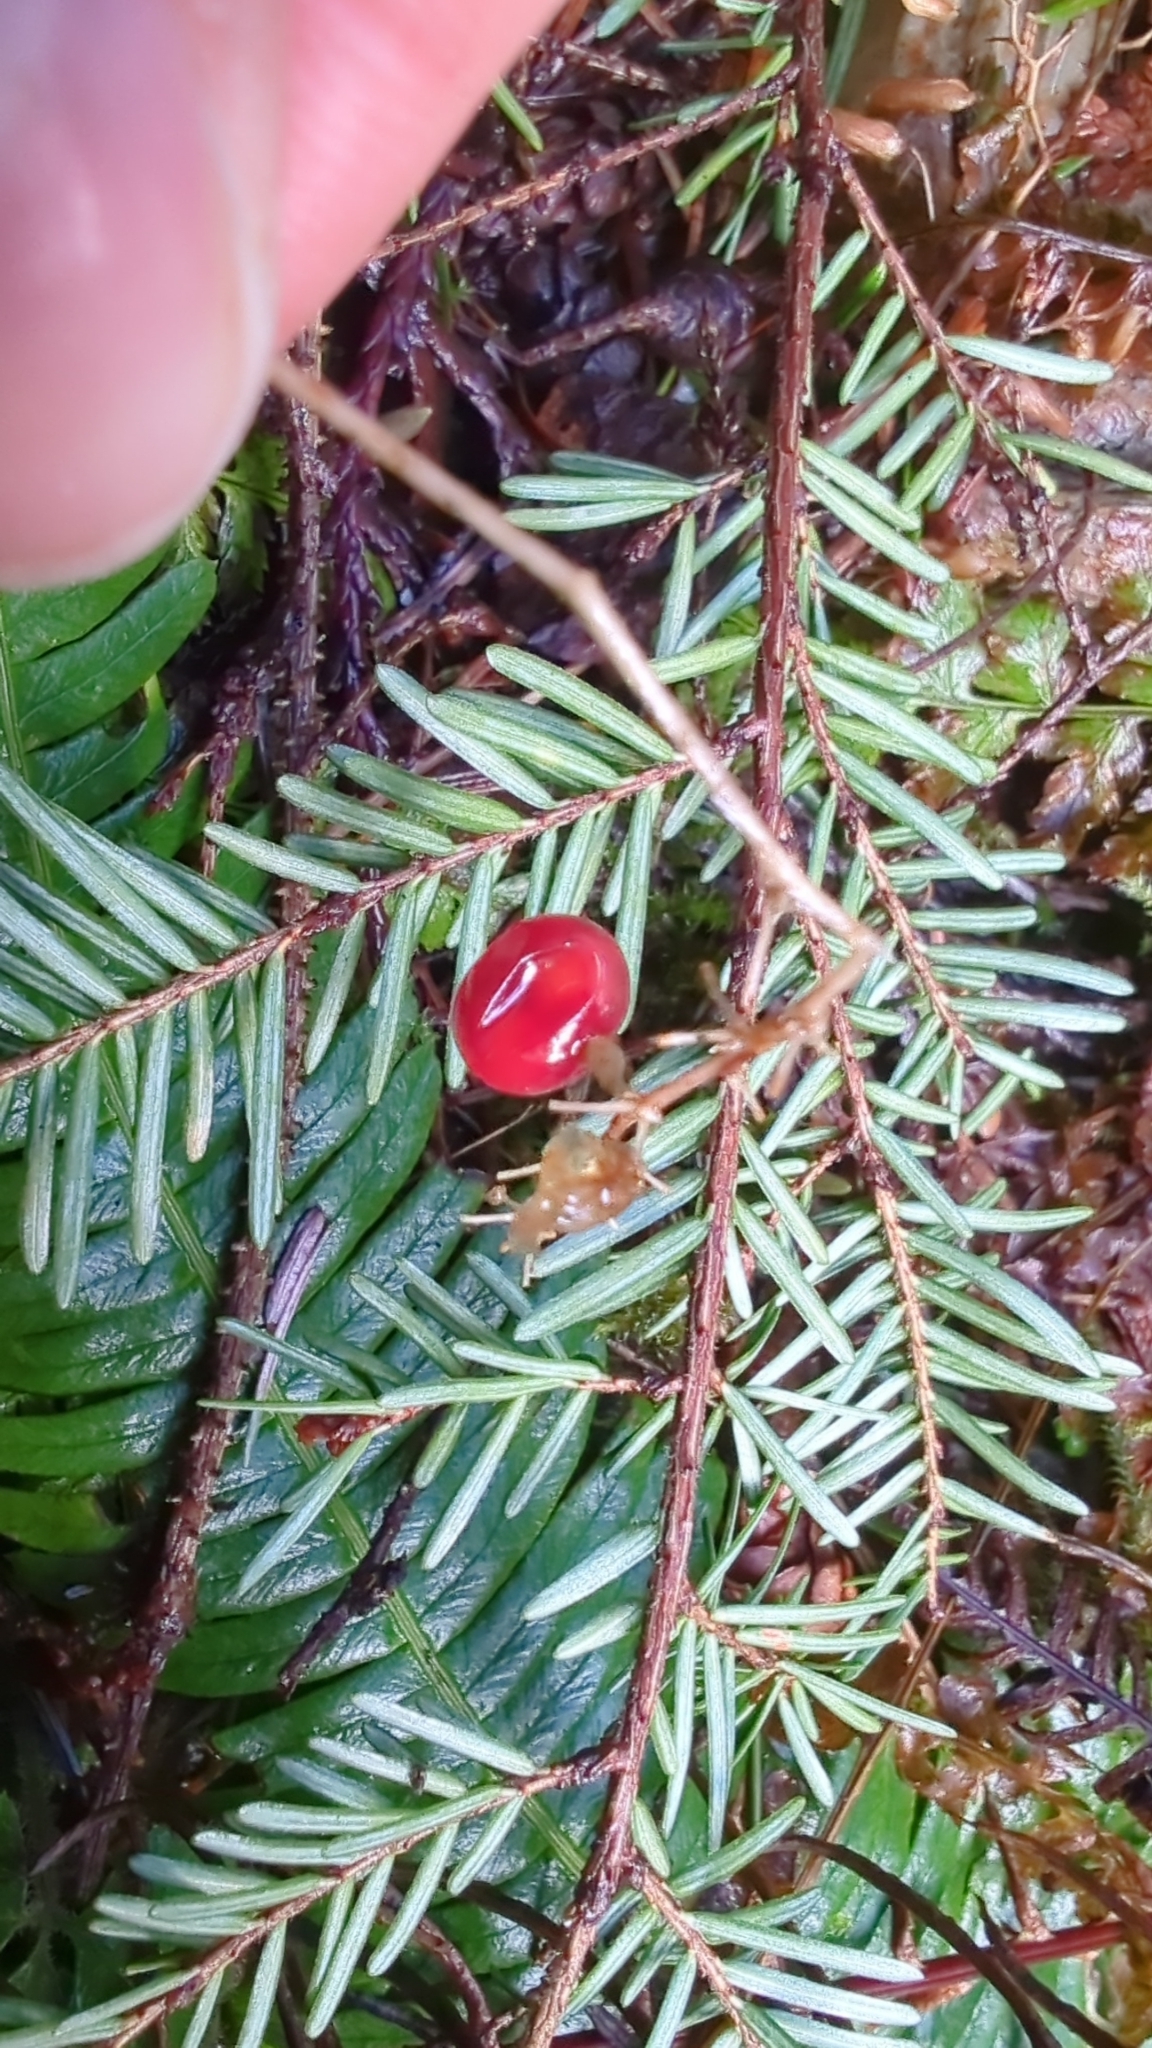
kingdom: Plantae
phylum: Tracheophyta
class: Liliopsida
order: Asparagales
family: Asparagaceae
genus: Maianthemum
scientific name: Maianthemum dilatatum
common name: False lily-of-the-valley
